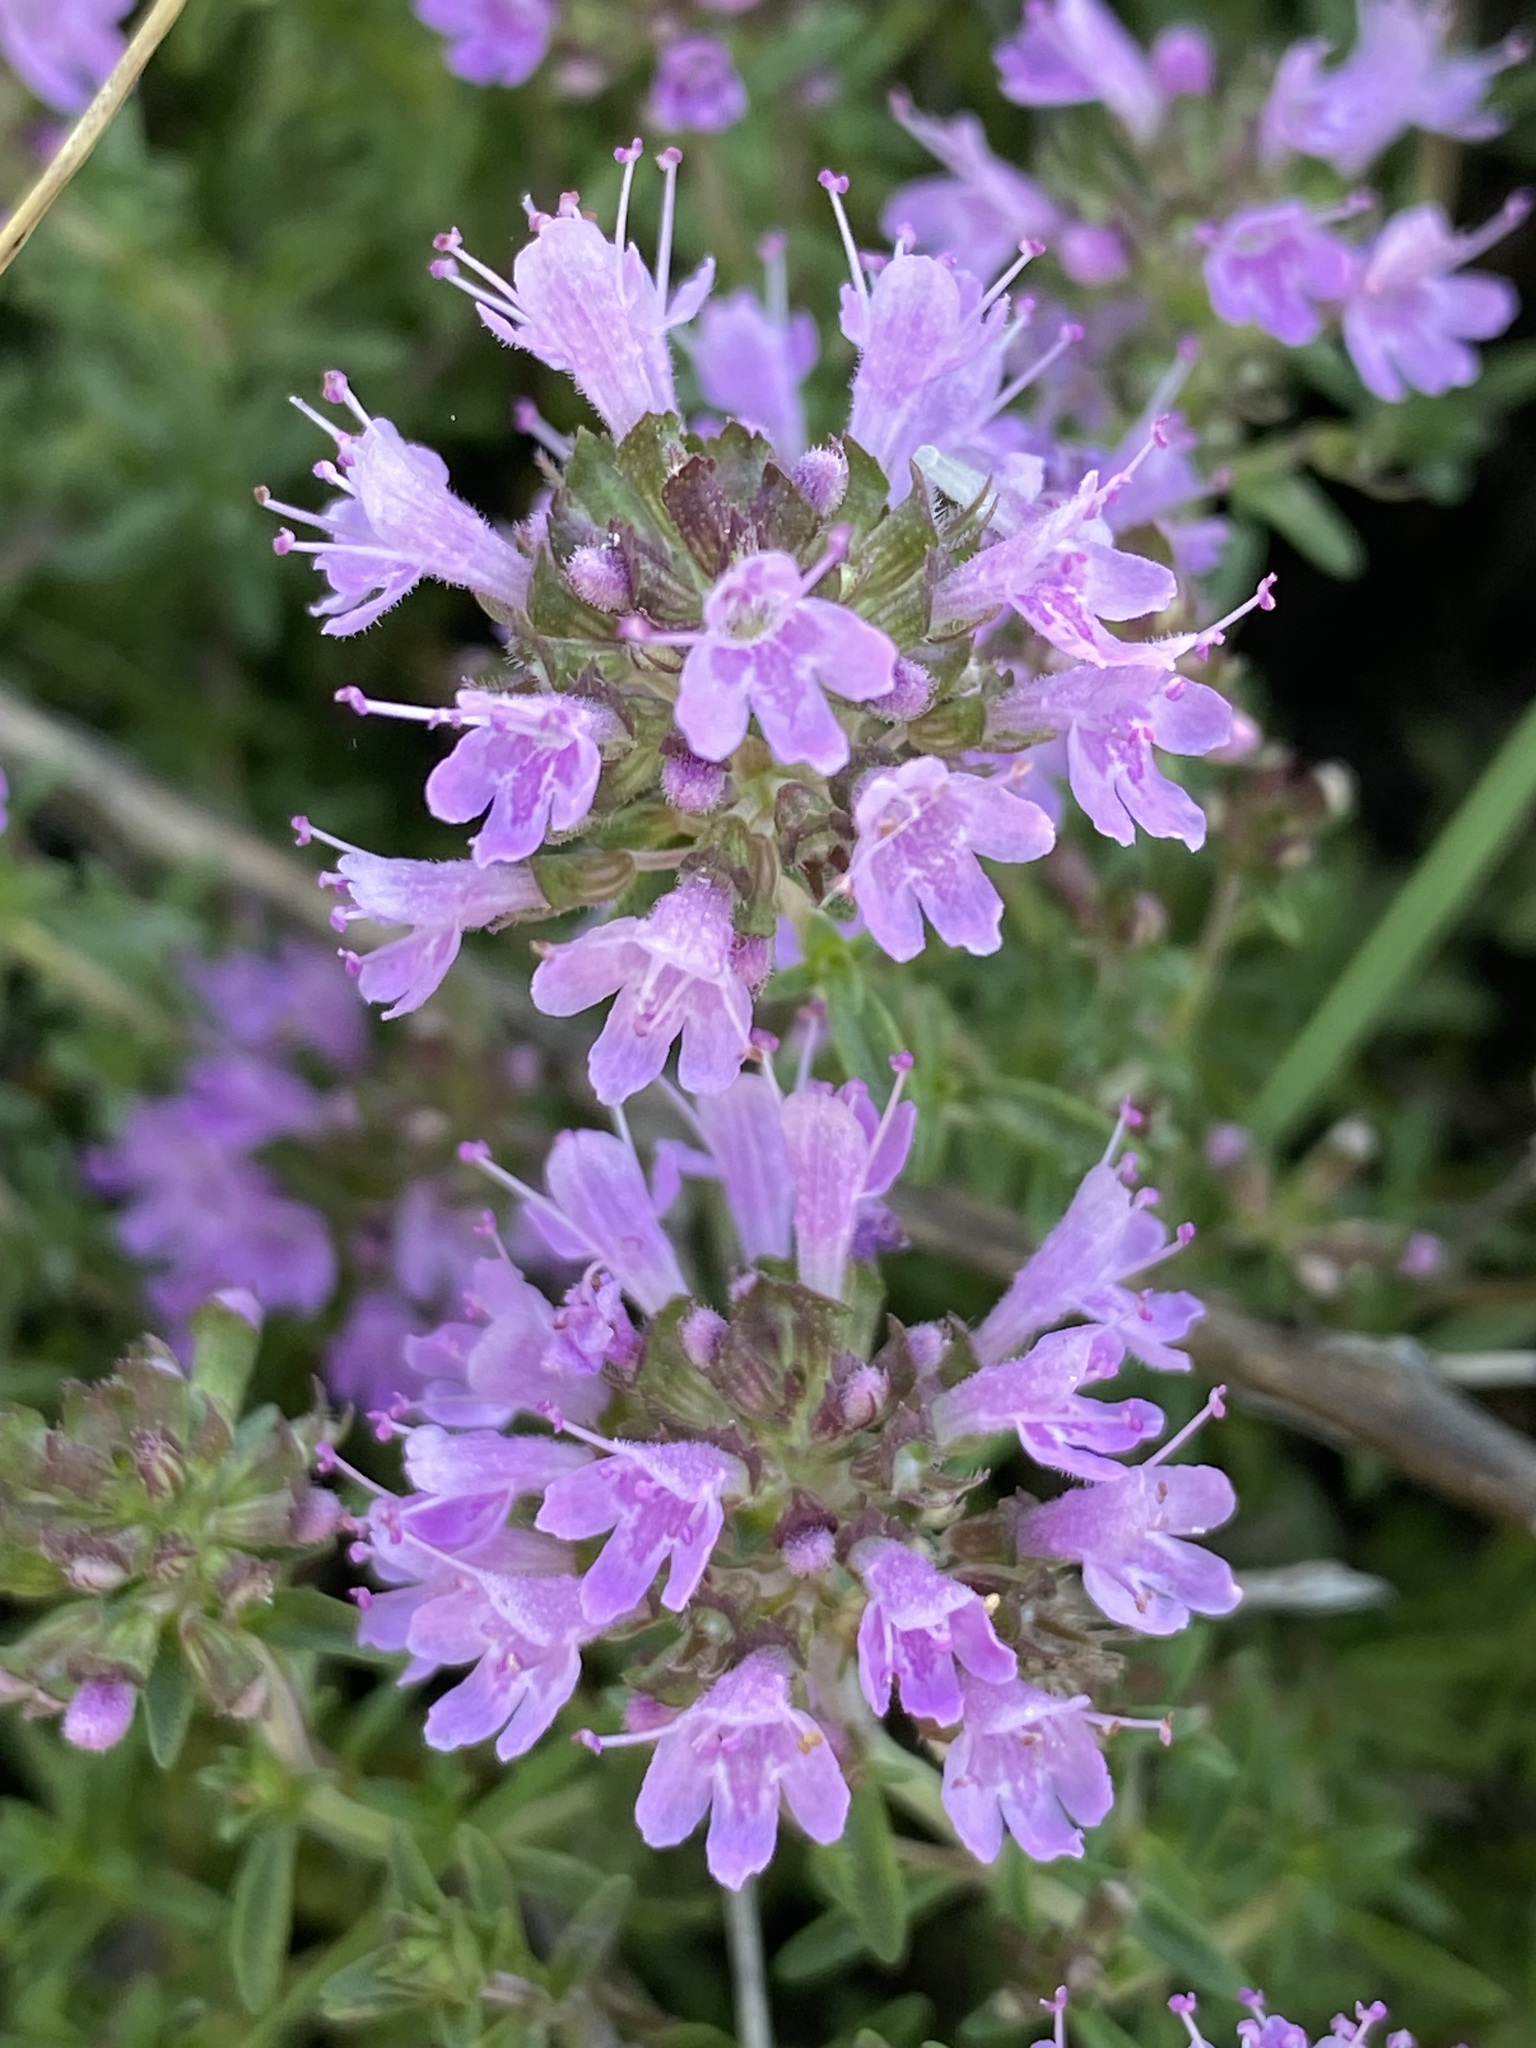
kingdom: Plantae
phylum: Tracheophyta
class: Magnoliopsida
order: Lamiales
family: Lamiaceae
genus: Thymus
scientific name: Thymus calcareus
